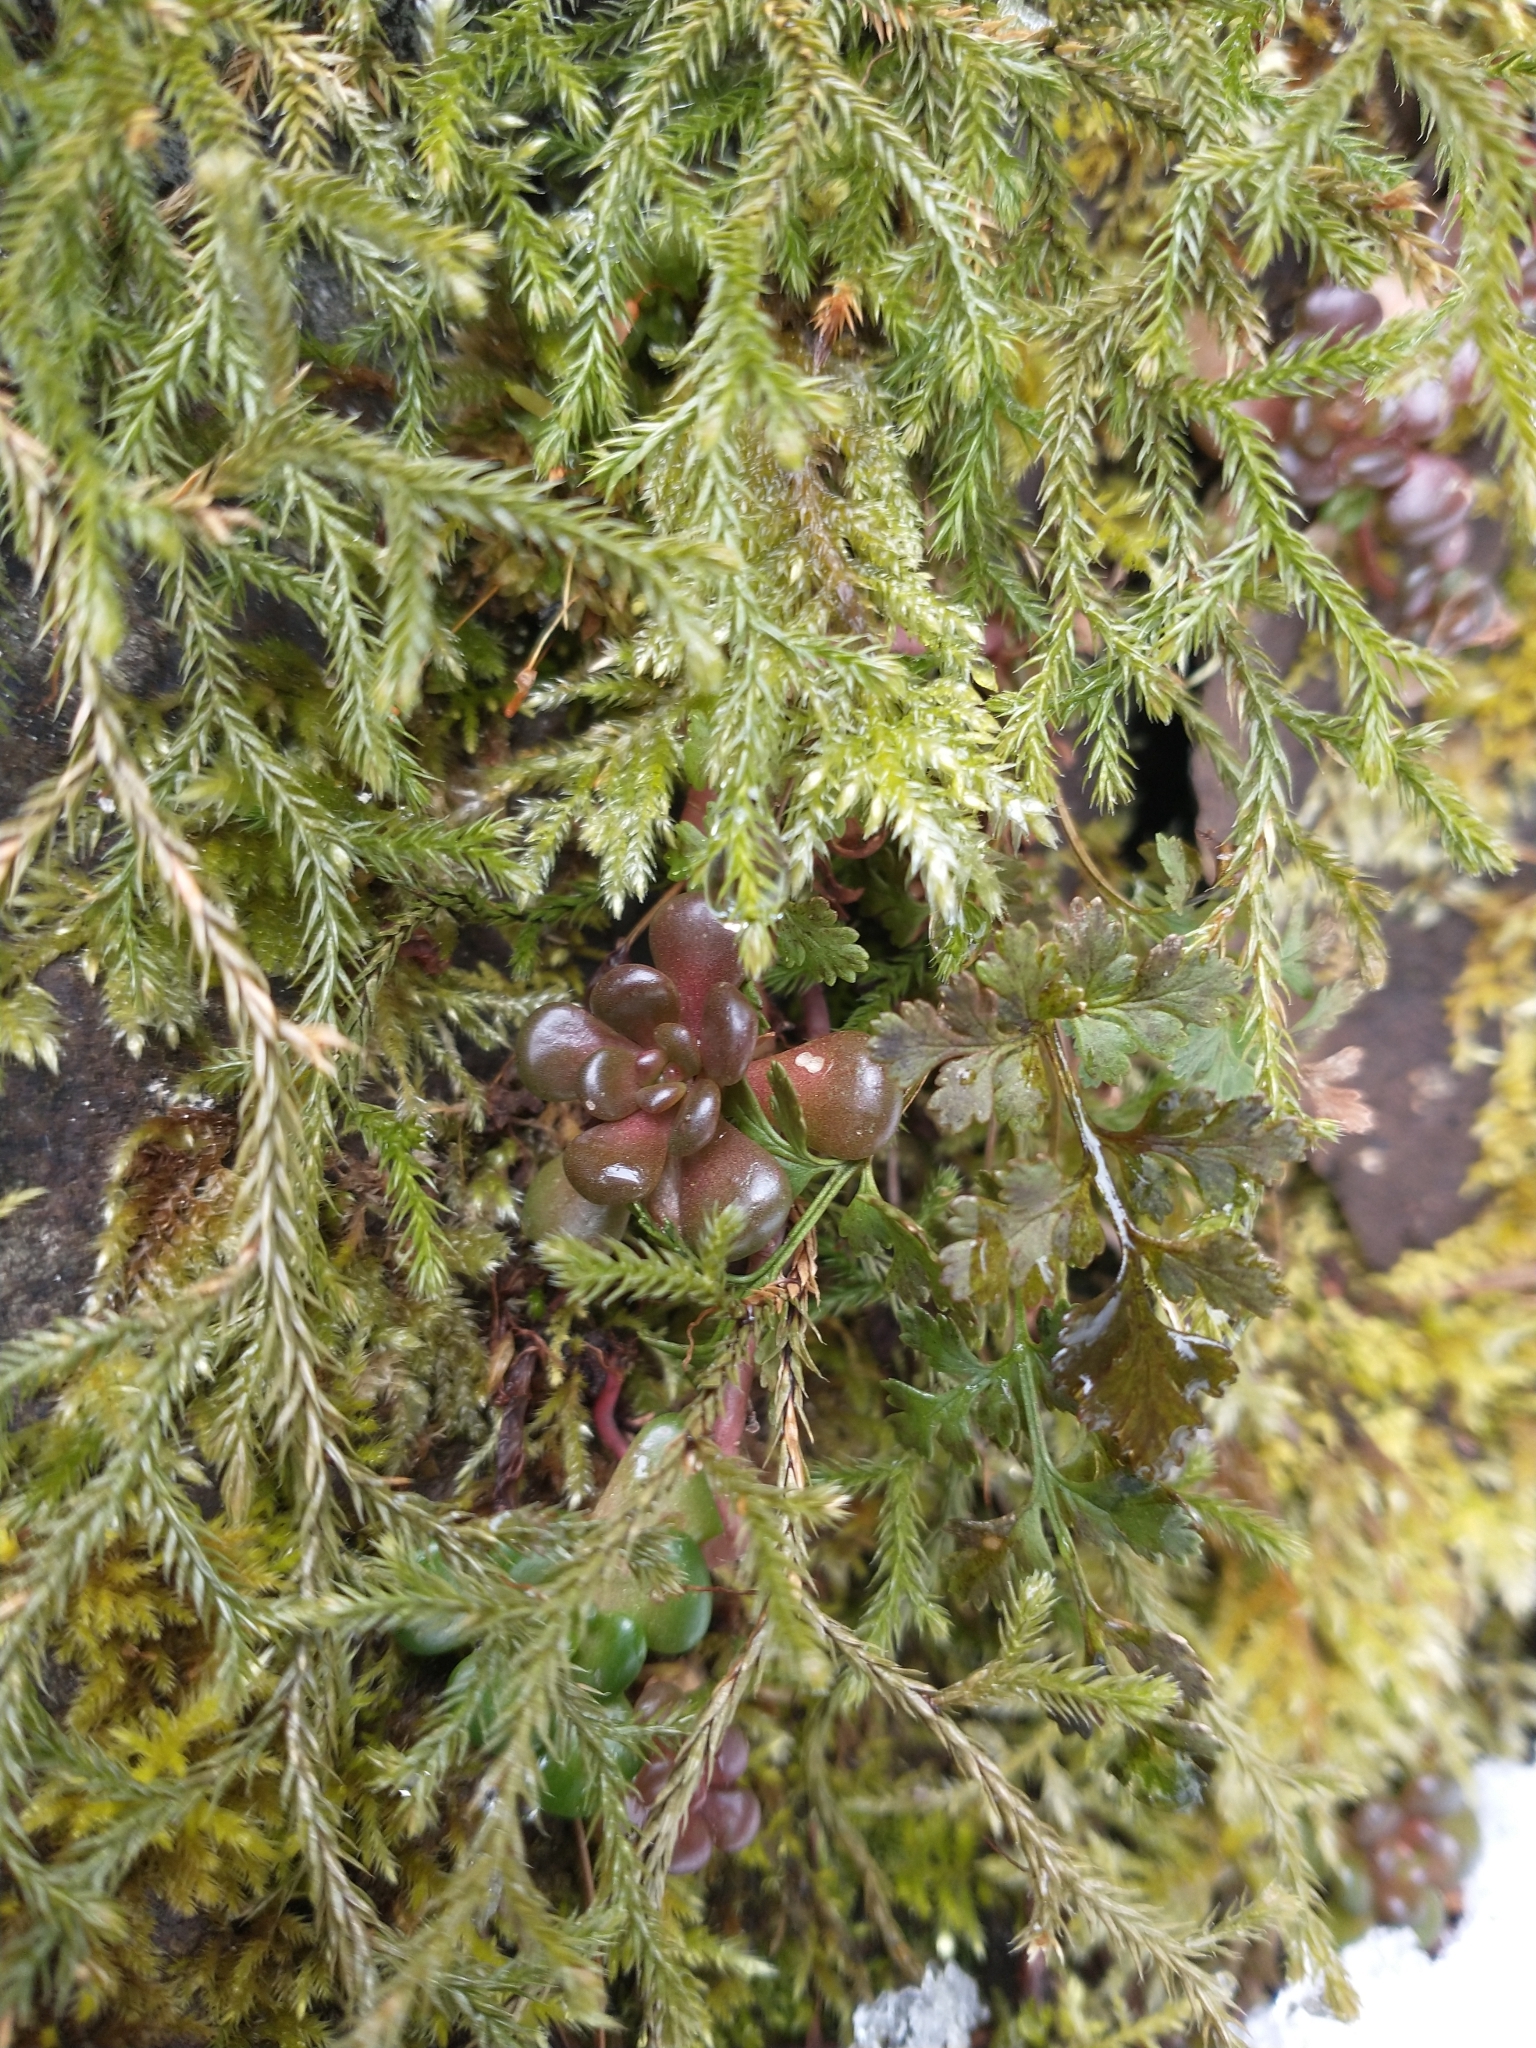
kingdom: Plantae
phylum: Tracheophyta
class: Magnoliopsida
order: Saxifragales
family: Crassulaceae
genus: Sedum
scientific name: Sedum oreganum
